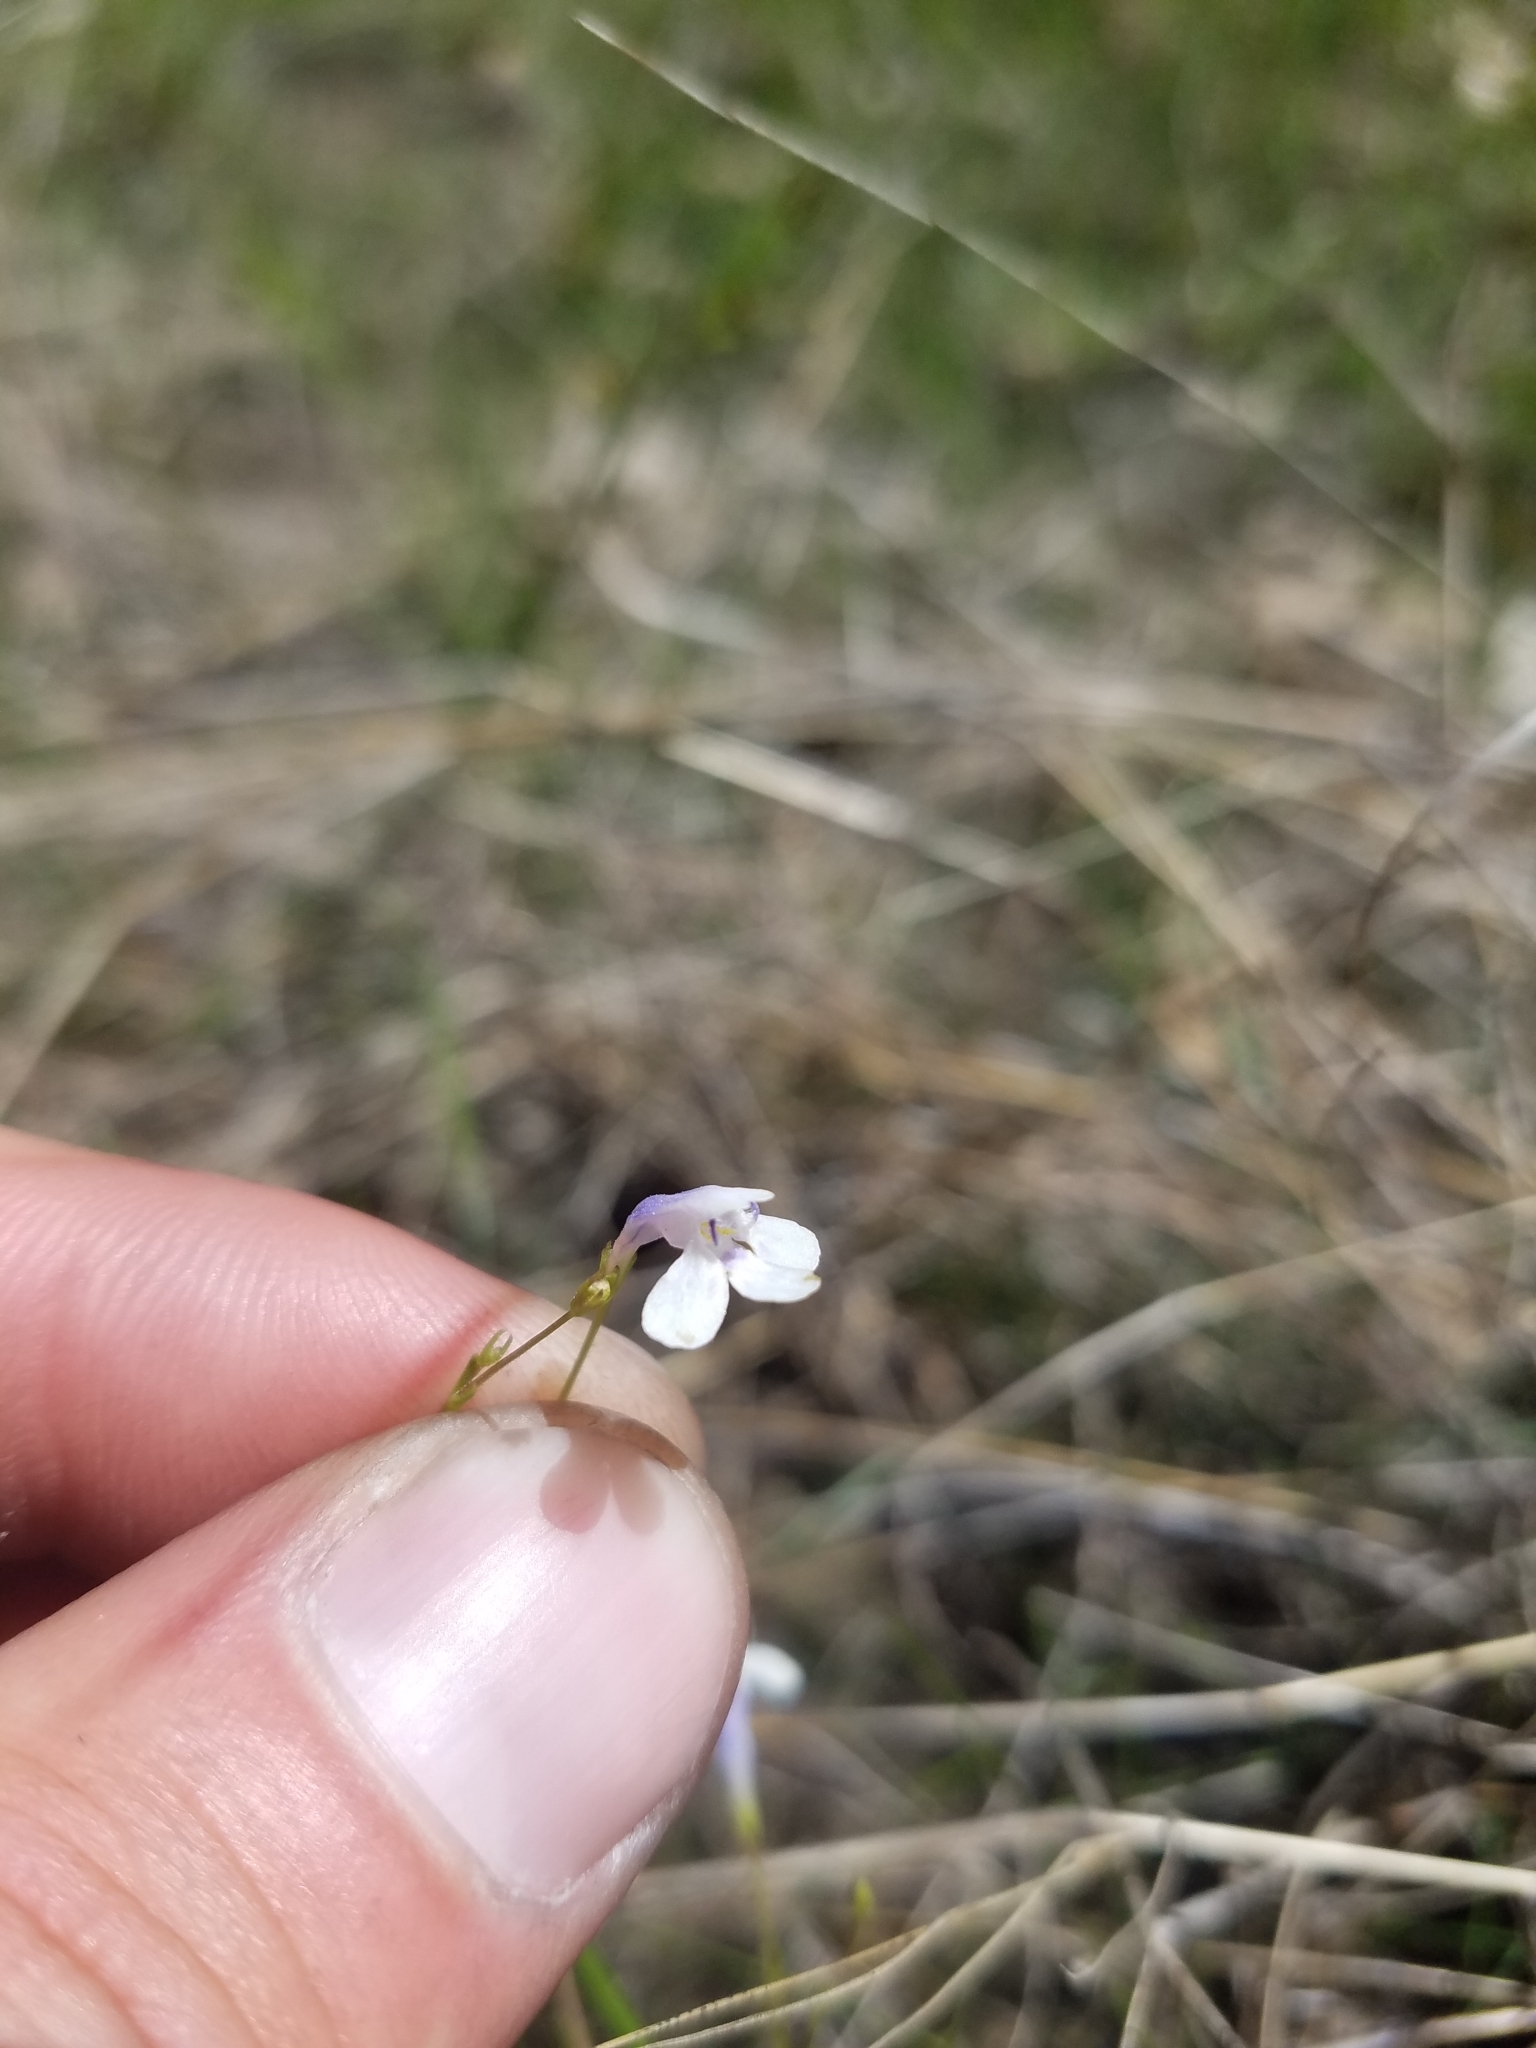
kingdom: Plantae
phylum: Tracheophyta
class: Magnoliopsida
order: Lamiales
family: Linderniaceae
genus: Lindernia
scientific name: Lindernia monticola
